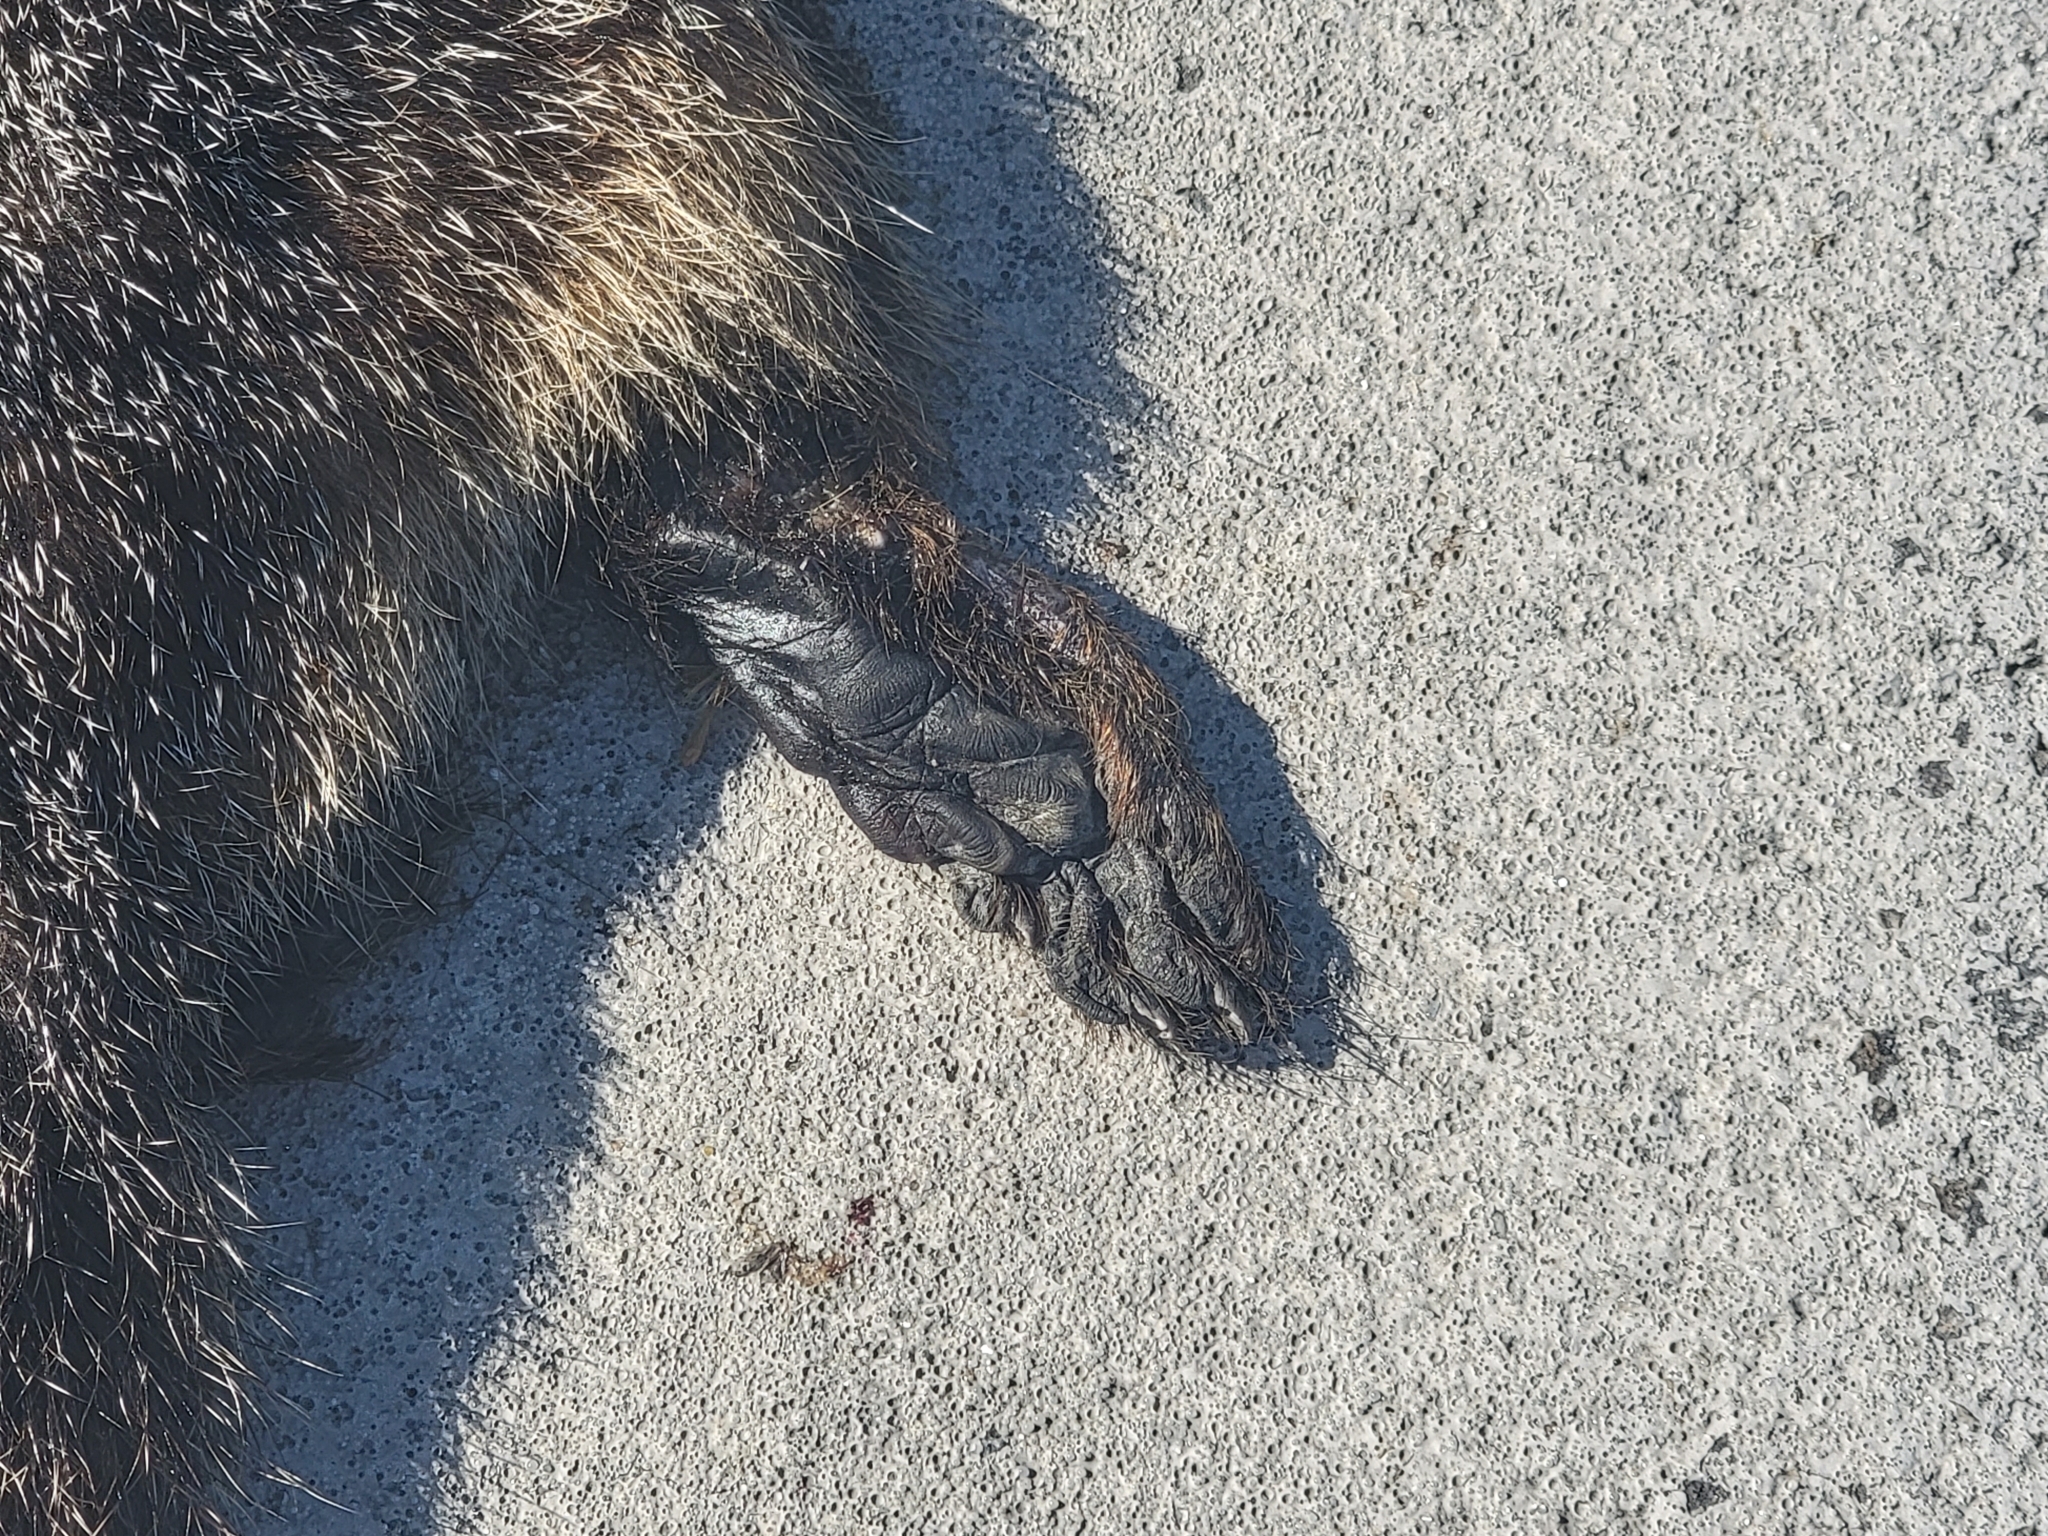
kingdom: Animalia
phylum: Chordata
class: Mammalia
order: Rodentia
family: Sciuridae
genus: Marmota
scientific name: Marmota flaviventris
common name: Yellow-bellied marmot
